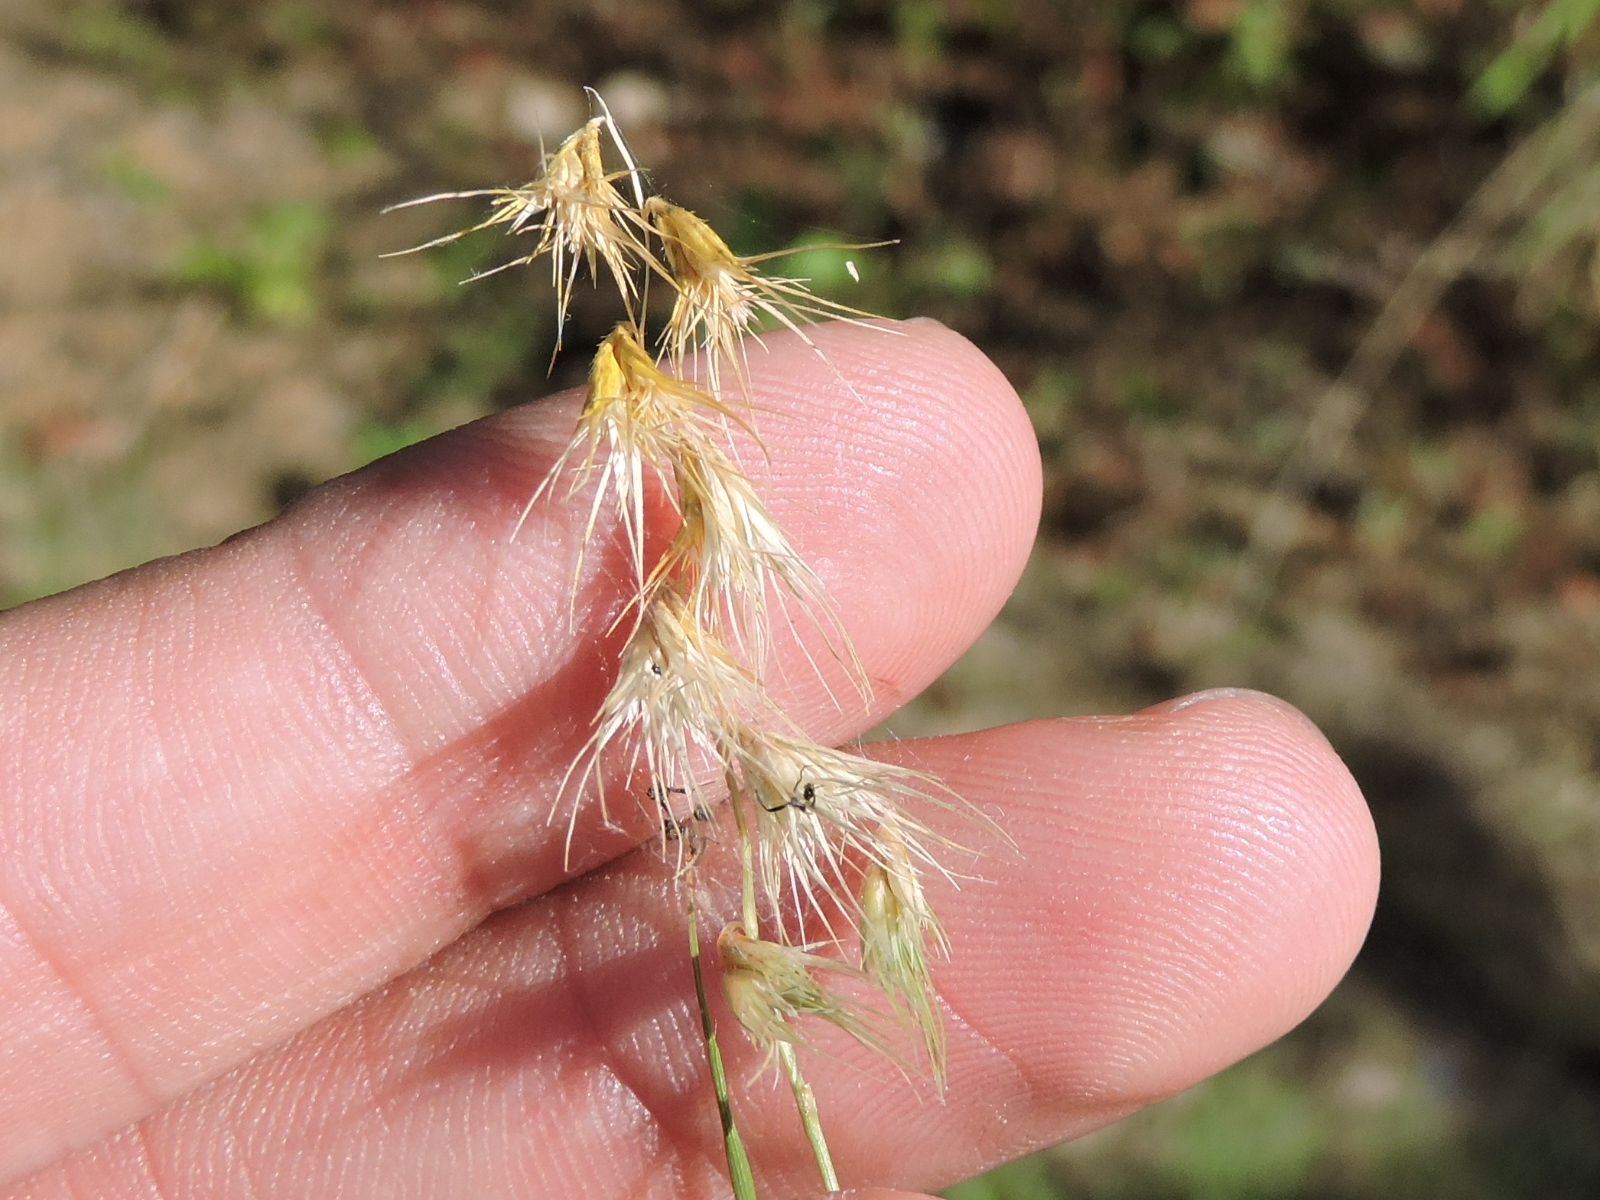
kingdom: Plantae
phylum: Tracheophyta
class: Liliopsida
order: Poales
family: Poaceae
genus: Bouteloua
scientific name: Bouteloua rigidiseta
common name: Texas grama
